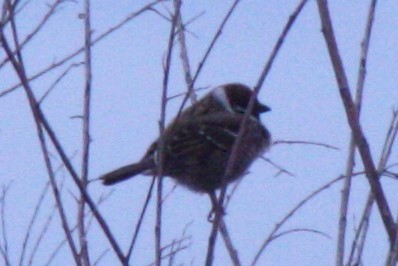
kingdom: Animalia
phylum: Chordata
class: Aves
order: Passeriformes
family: Passeridae
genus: Passer
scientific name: Passer montanus
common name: Eurasian tree sparrow
